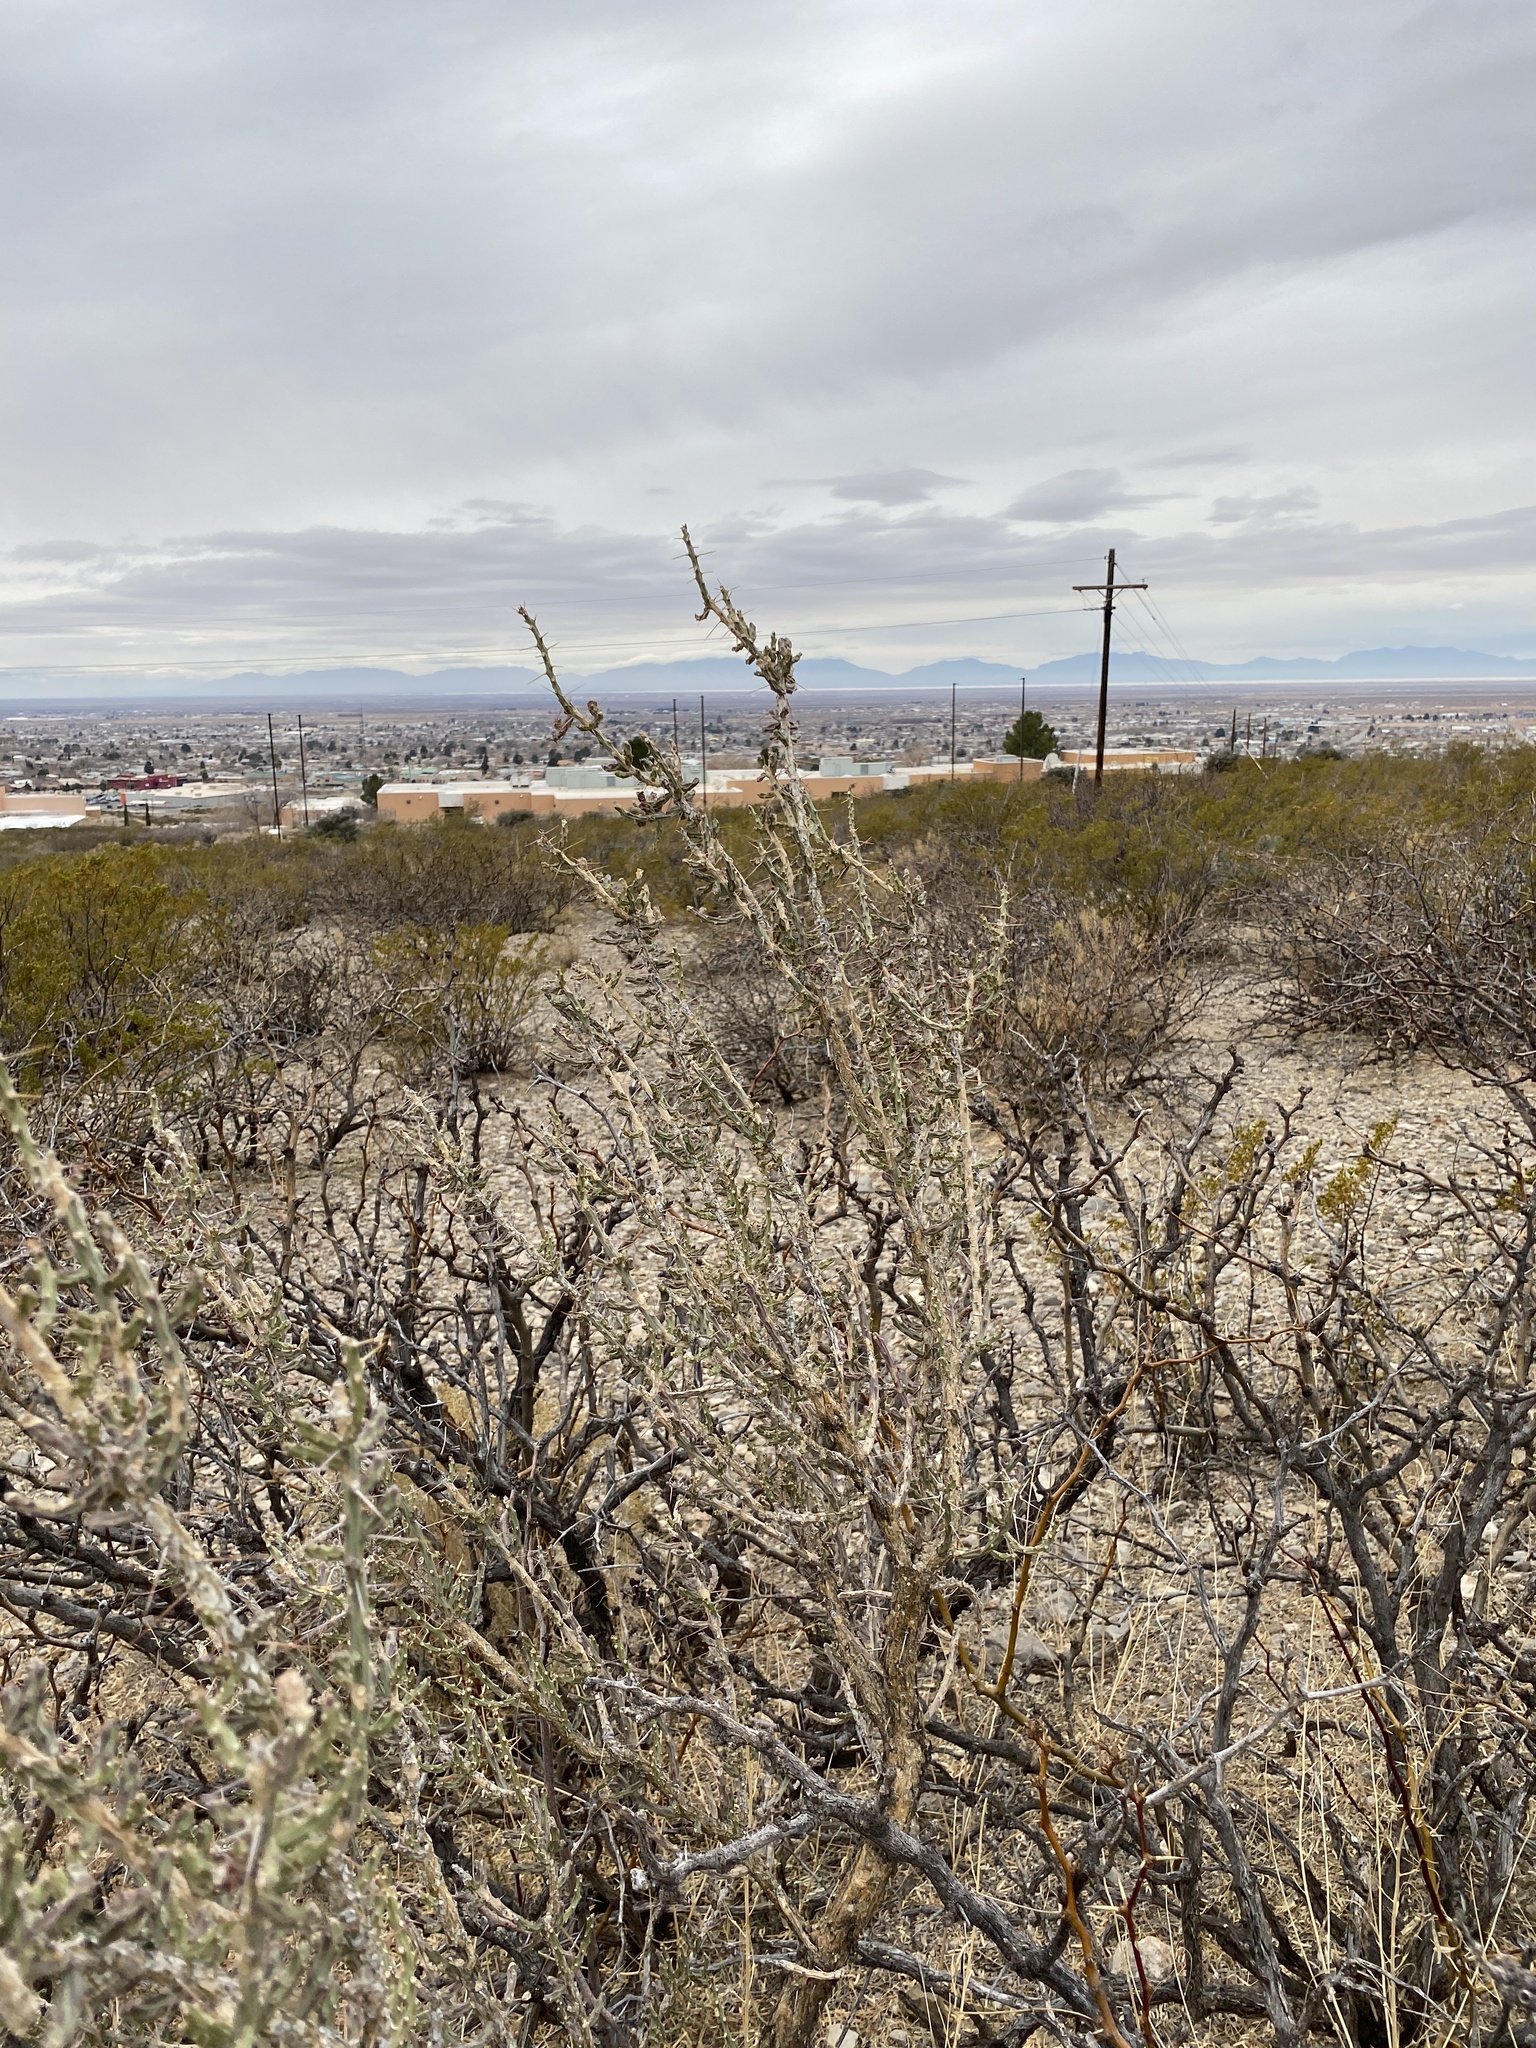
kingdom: Plantae
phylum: Tracheophyta
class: Magnoliopsida
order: Caryophyllales
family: Cactaceae
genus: Cylindropuntia
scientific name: Cylindropuntia leptocaulis
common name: Christmas cactus
